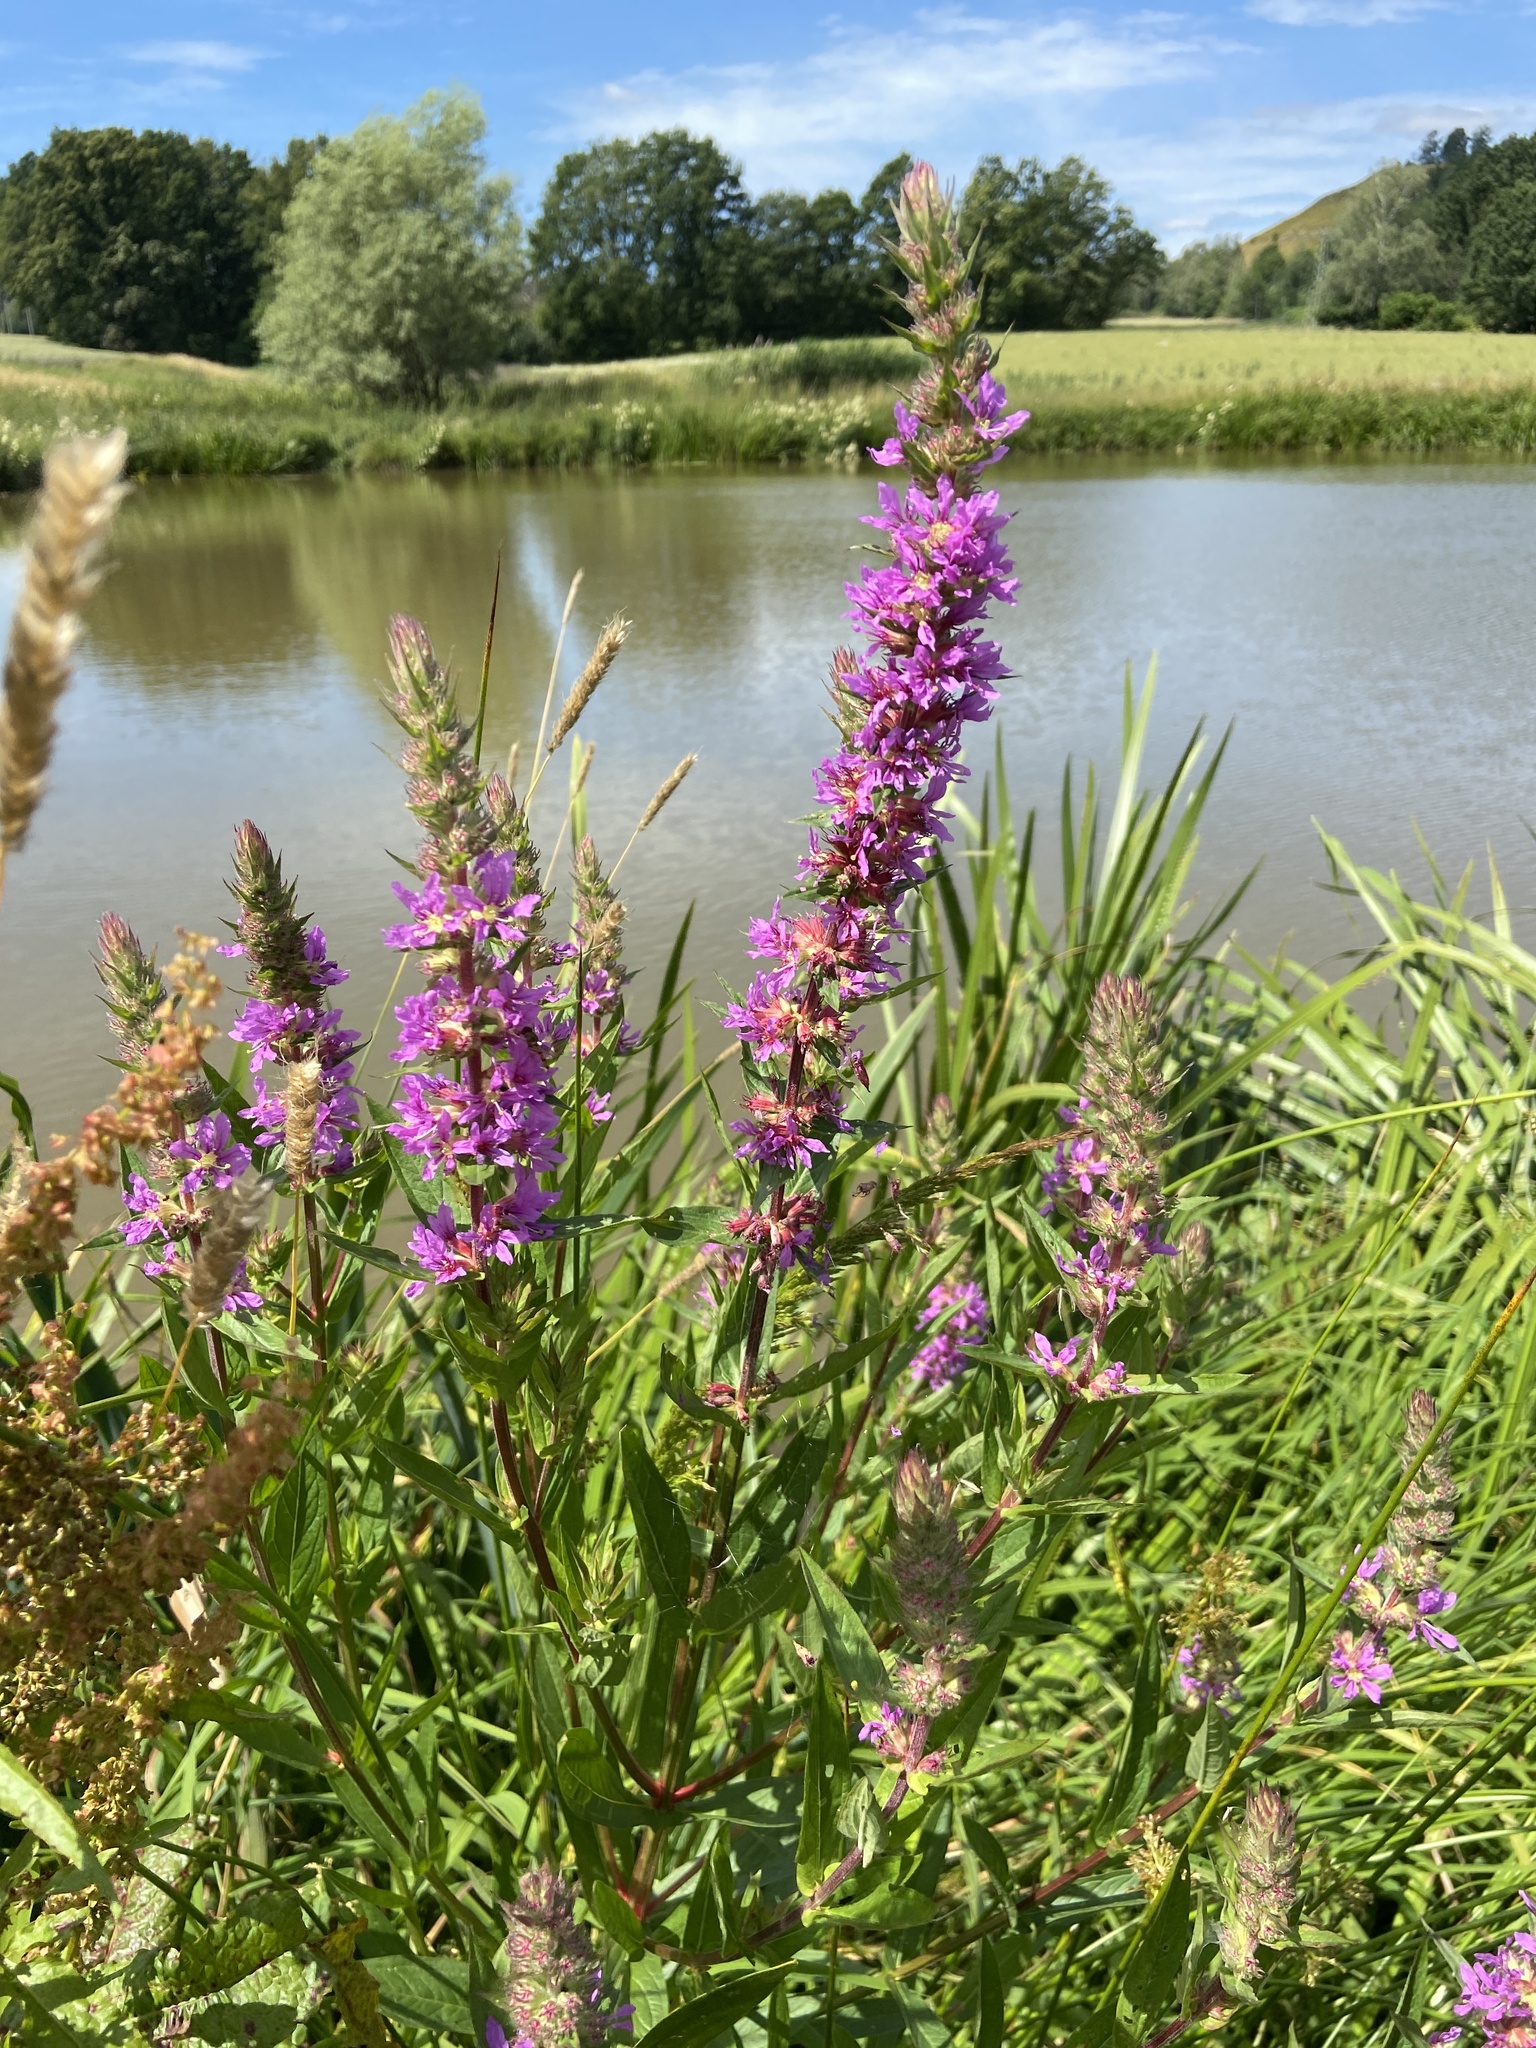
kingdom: Plantae
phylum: Tracheophyta
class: Magnoliopsida
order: Myrtales
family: Lythraceae
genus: Lythrum
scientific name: Lythrum salicaria
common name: Purple loosestrife
